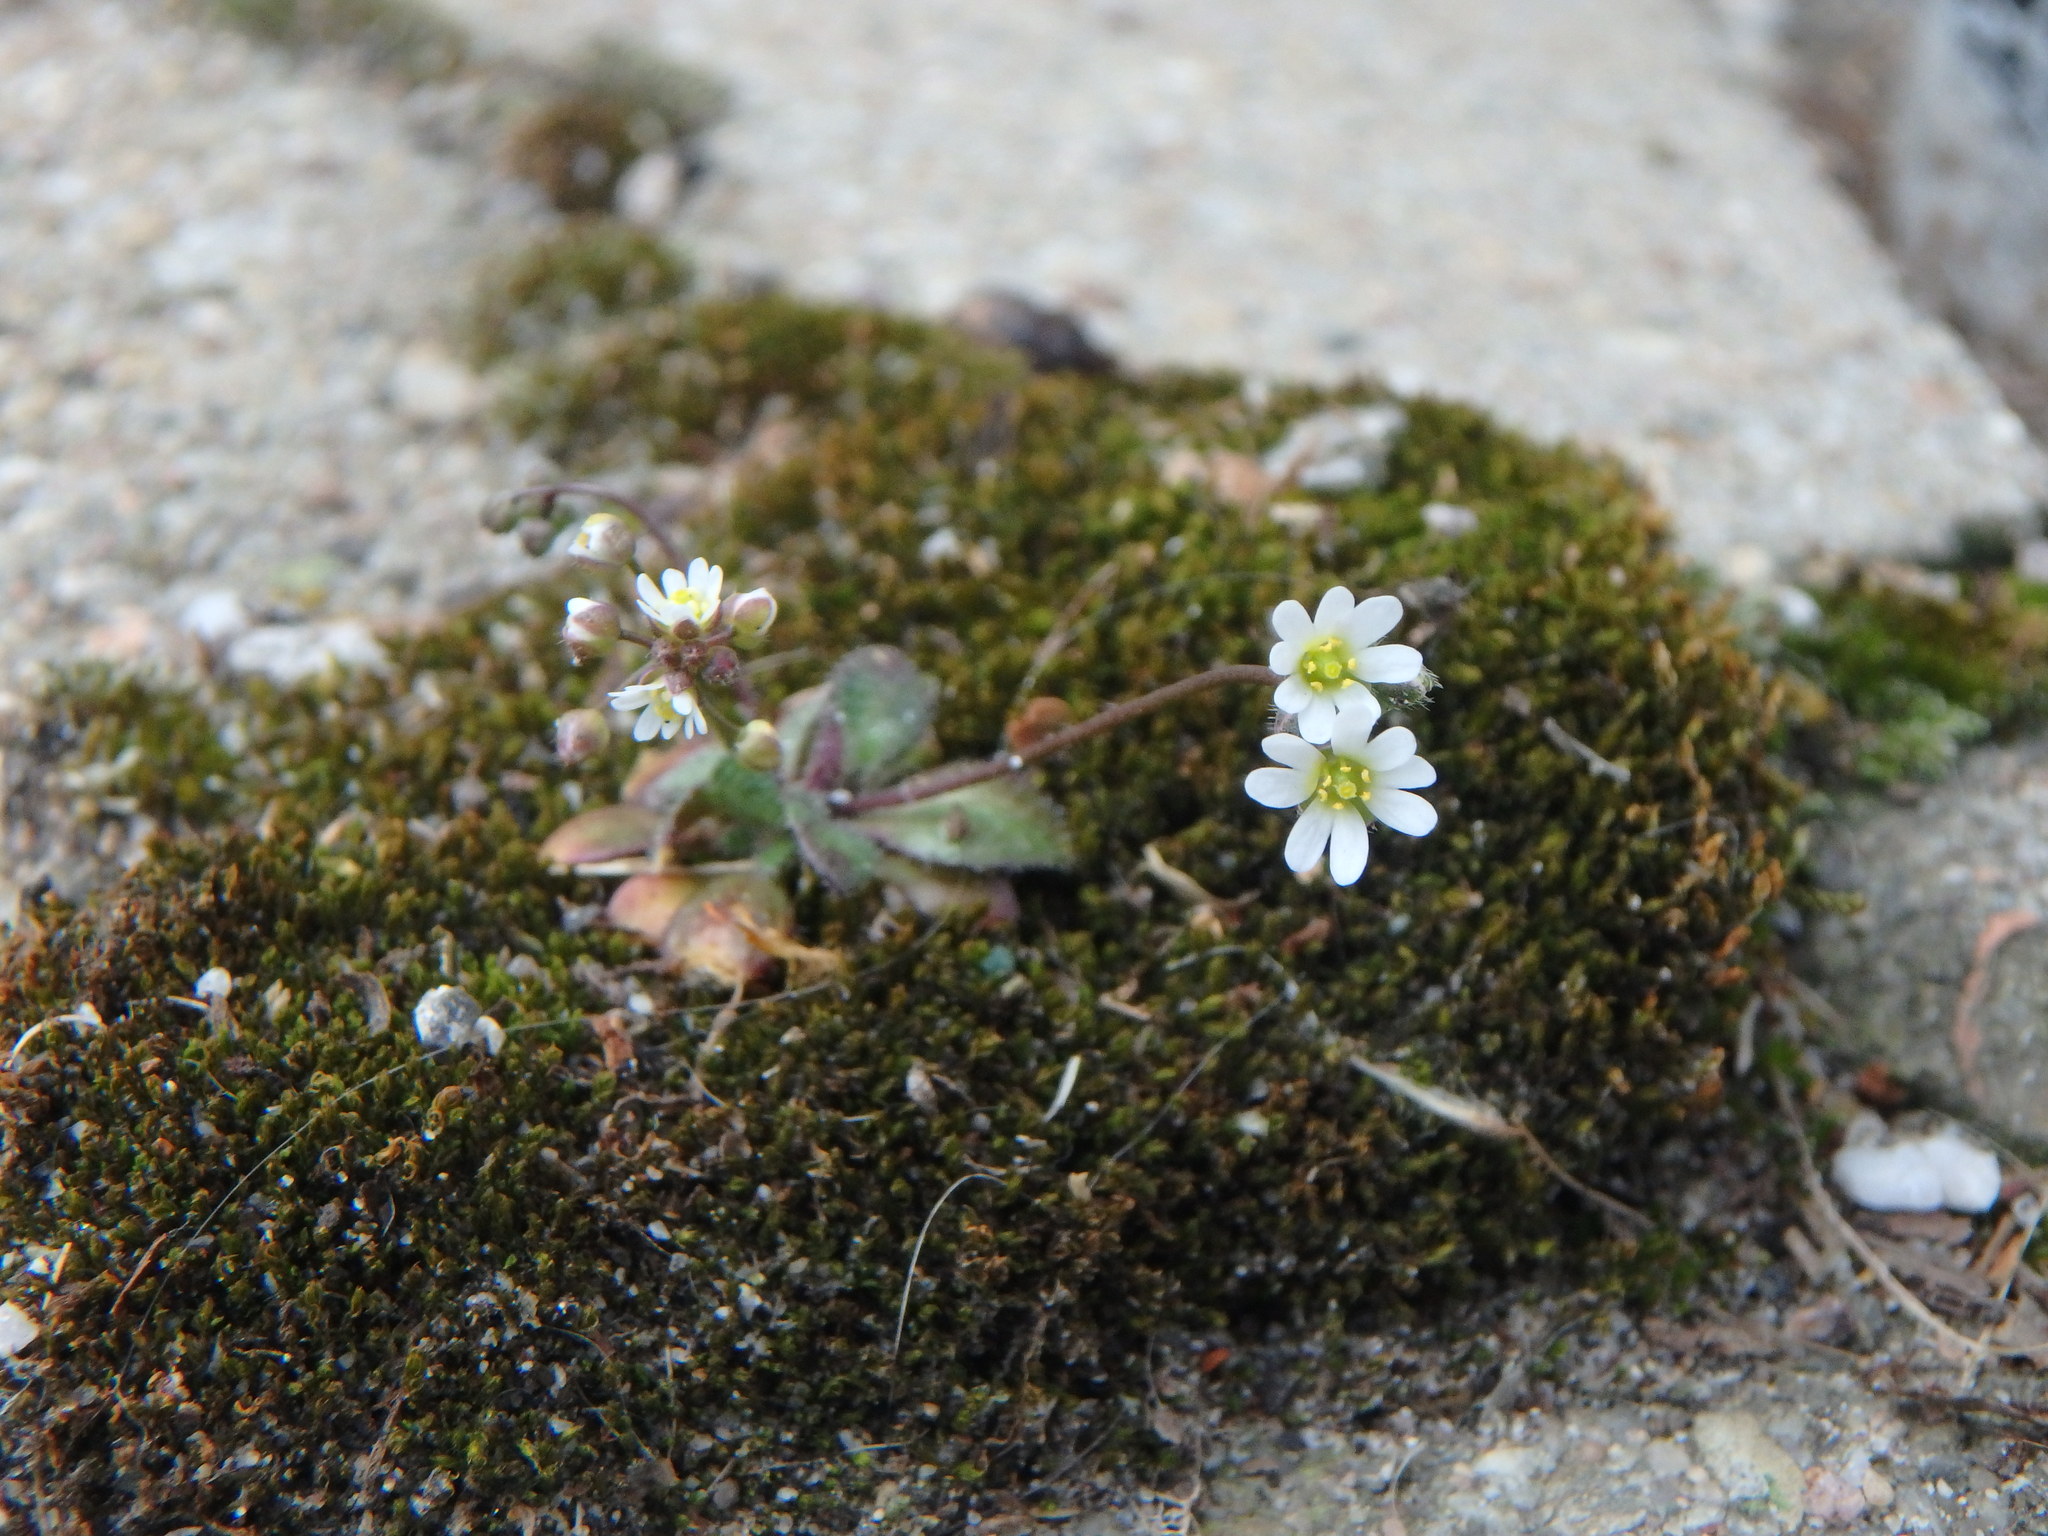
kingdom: Plantae
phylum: Tracheophyta
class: Magnoliopsida
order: Brassicales
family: Brassicaceae
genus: Draba
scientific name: Draba verna
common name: Spring draba
